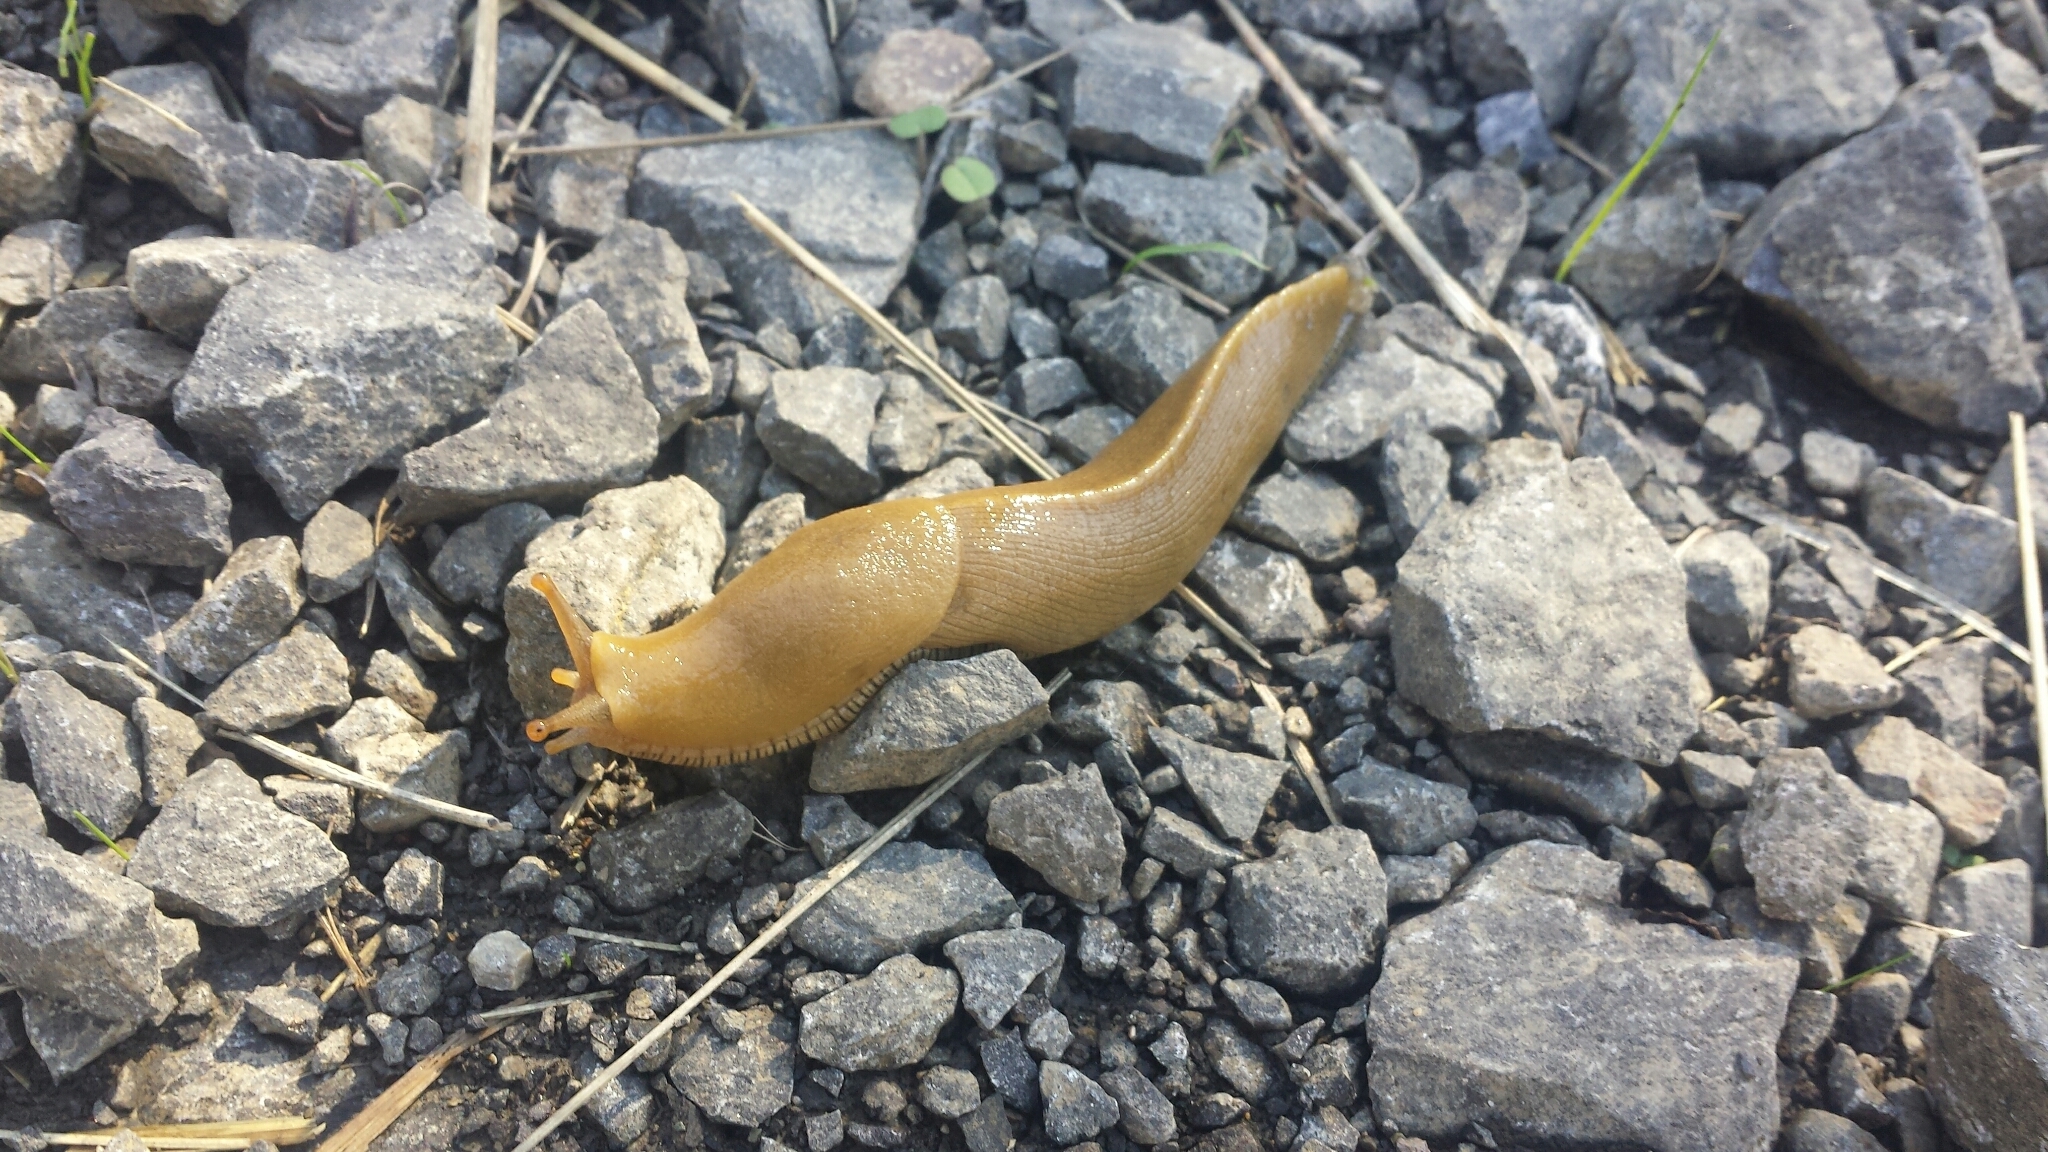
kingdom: Animalia
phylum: Mollusca
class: Gastropoda
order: Stylommatophora
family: Ariolimacidae
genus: Ariolimax
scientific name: Ariolimax buttoni
